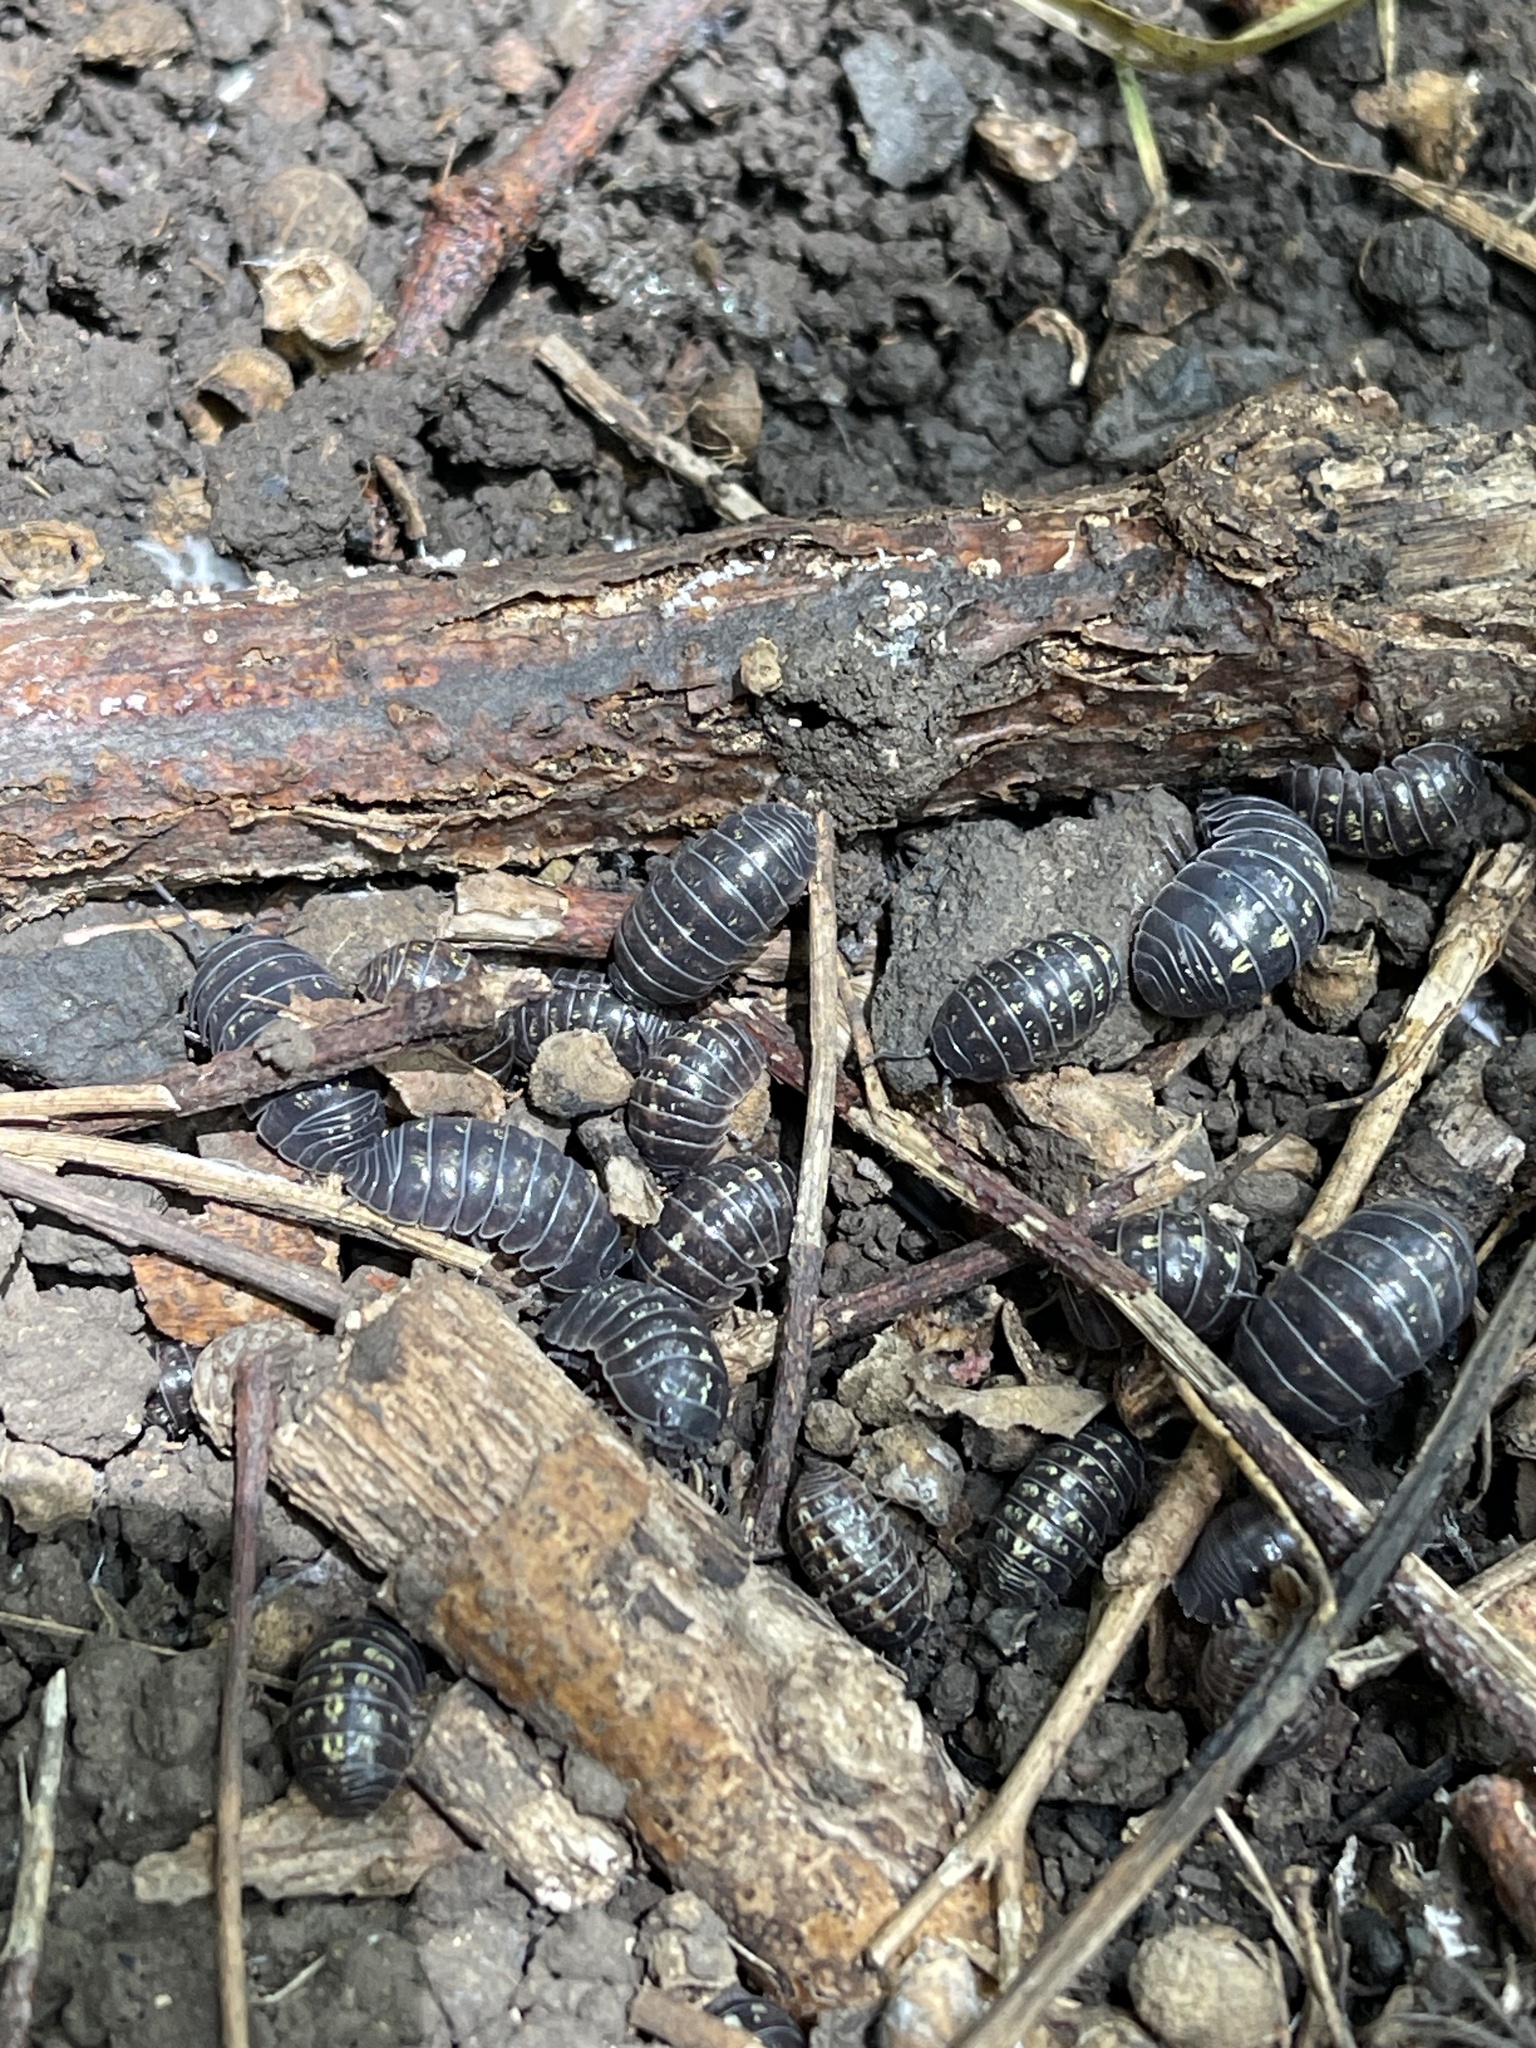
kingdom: Animalia
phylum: Arthropoda
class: Malacostraca
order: Isopoda
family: Armadillidiidae
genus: Armadillidium
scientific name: Armadillidium vulgare
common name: Common pill woodlouse
